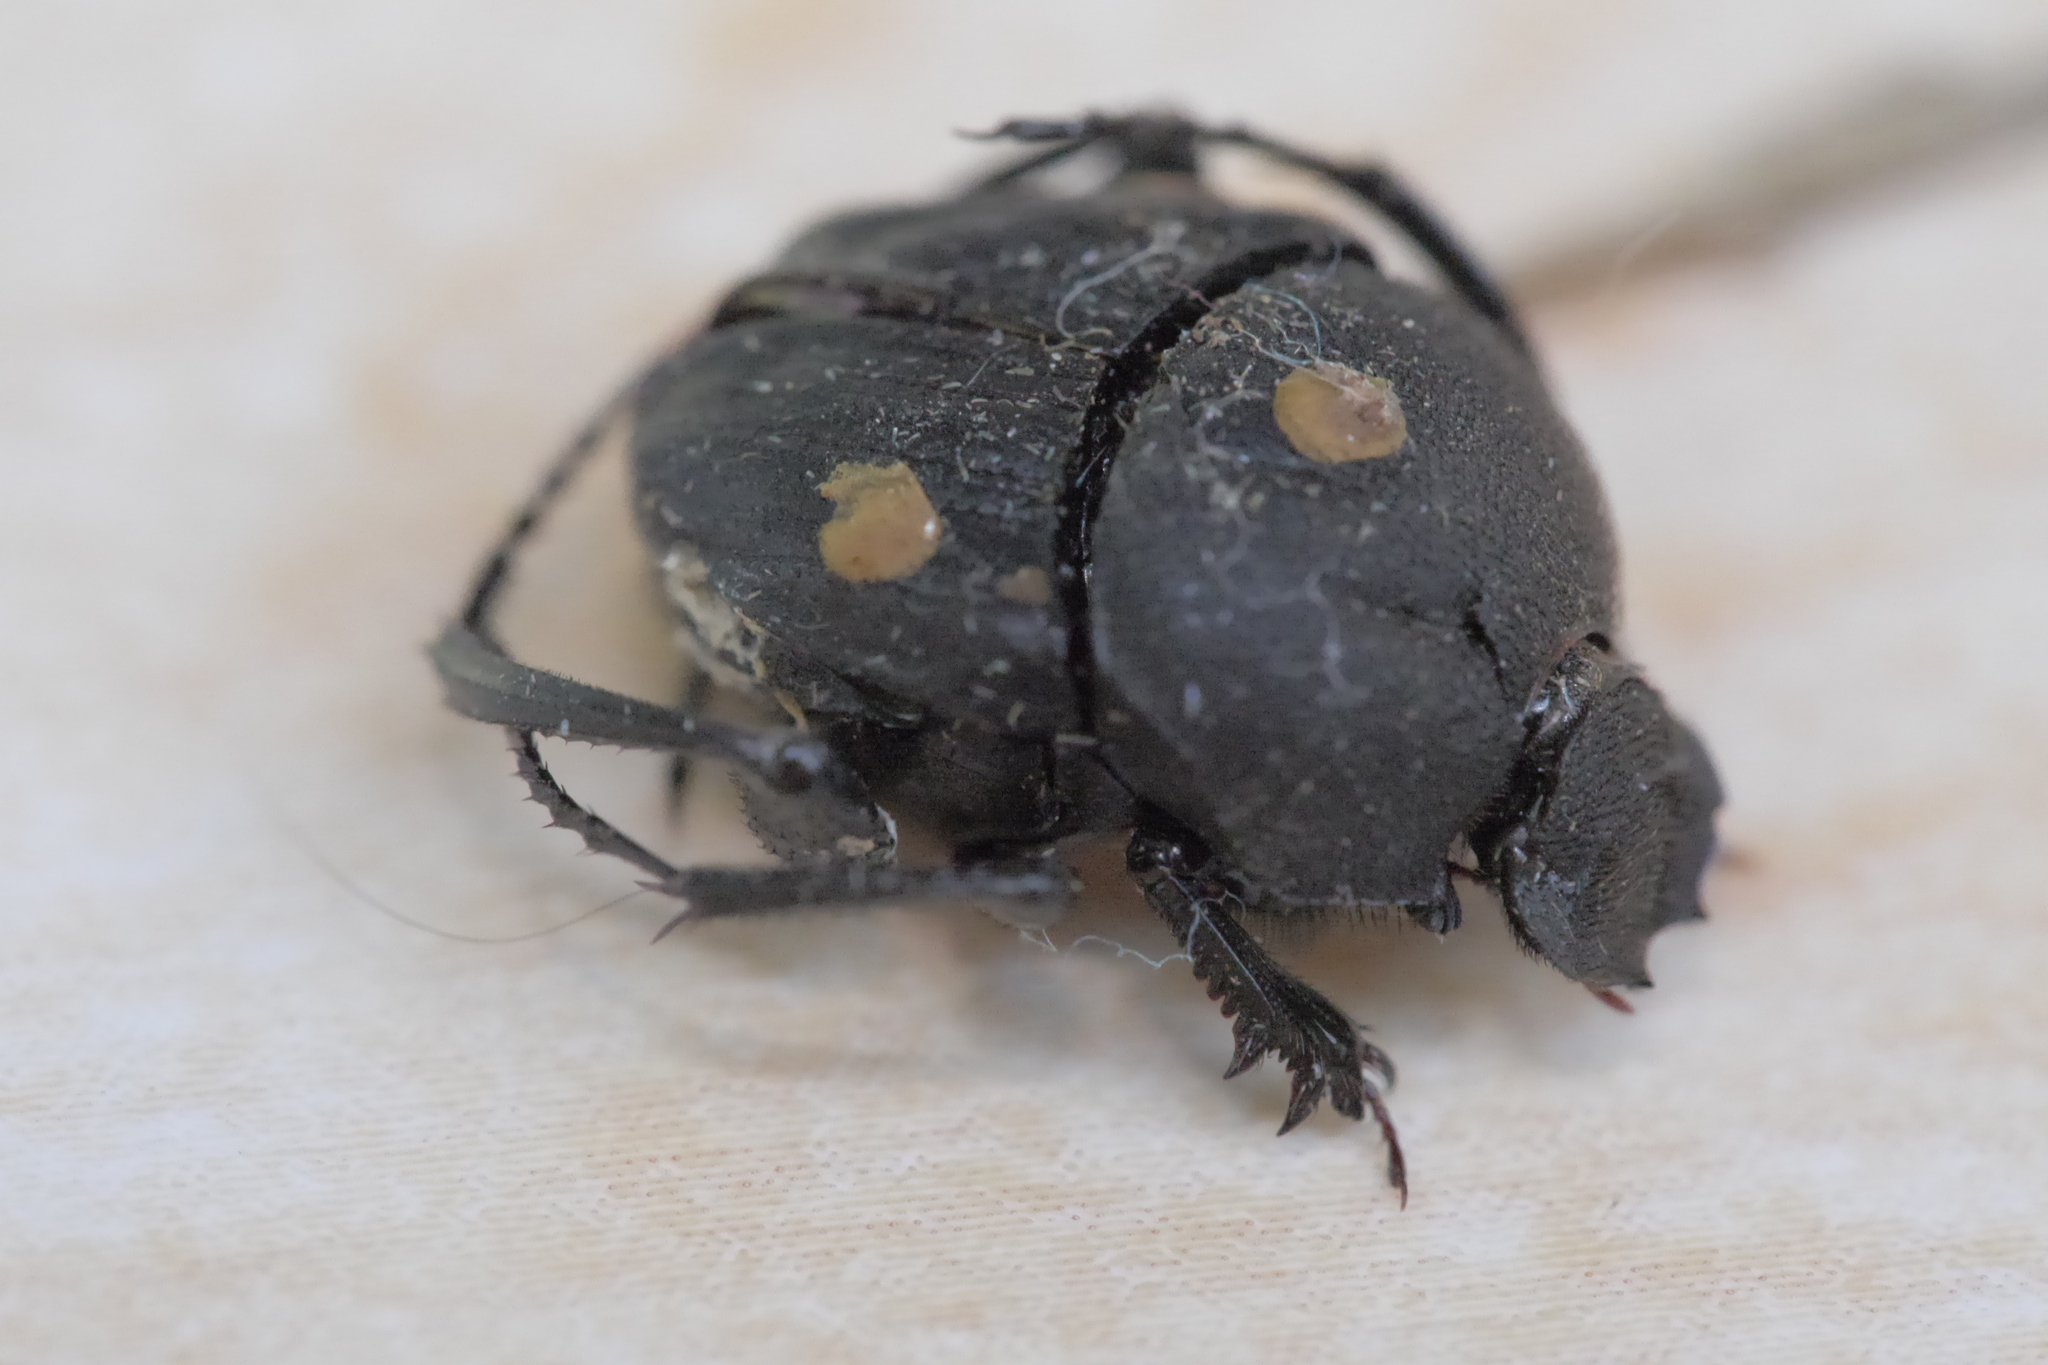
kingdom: Animalia
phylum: Arthropoda
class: Insecta
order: Coleoptera
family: Scarabaeidae
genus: Sisyphus
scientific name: Sisyphus schaefferi
